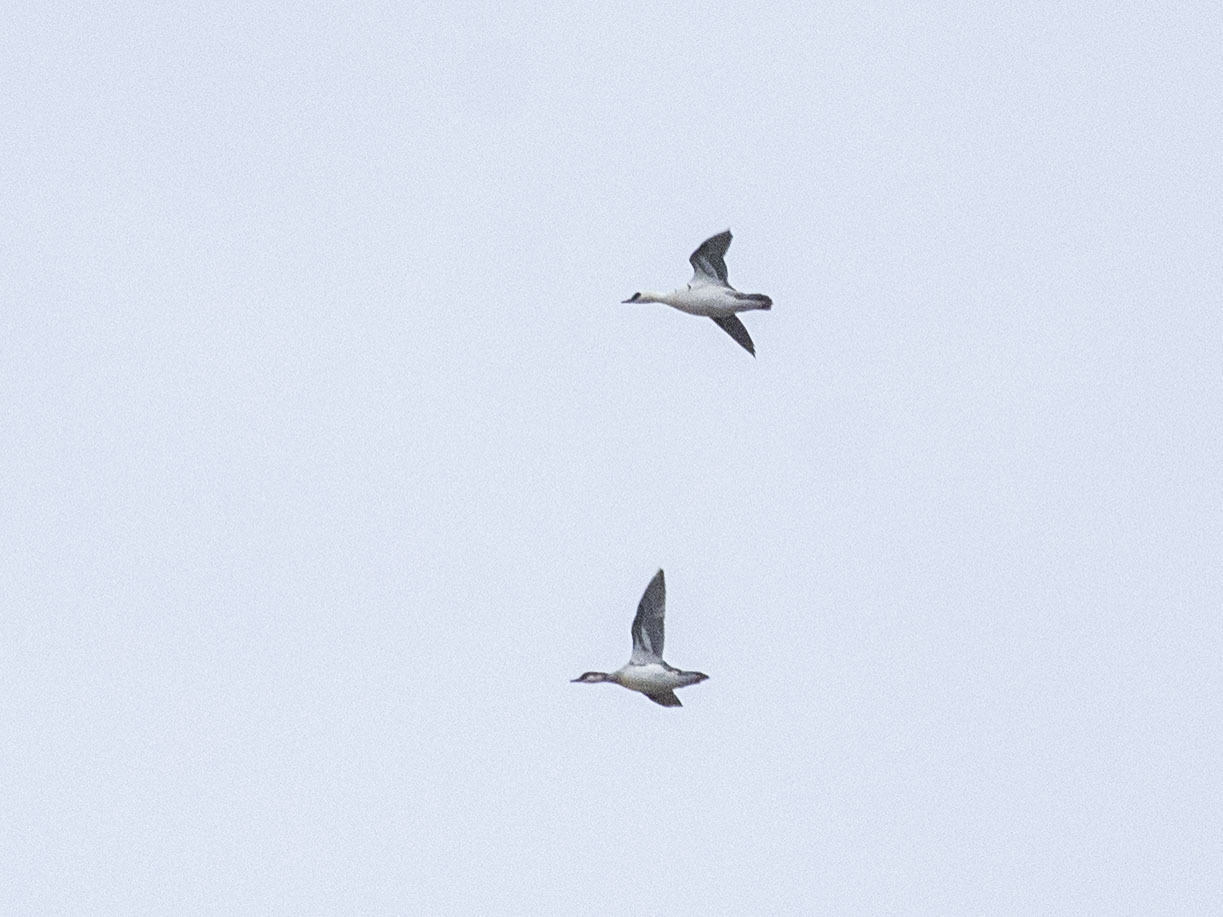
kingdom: Animalia
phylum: Chordata
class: Aves
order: Anseriformes
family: Anatidae
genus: Mergellus
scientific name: Mergellus albellus
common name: Smew
